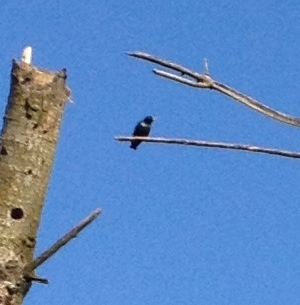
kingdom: Animalia
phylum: Chordata
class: Aves
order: Passeriformes
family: Sturnidae
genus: Sturnus
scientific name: Sturnus vulgaris
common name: Common starling
